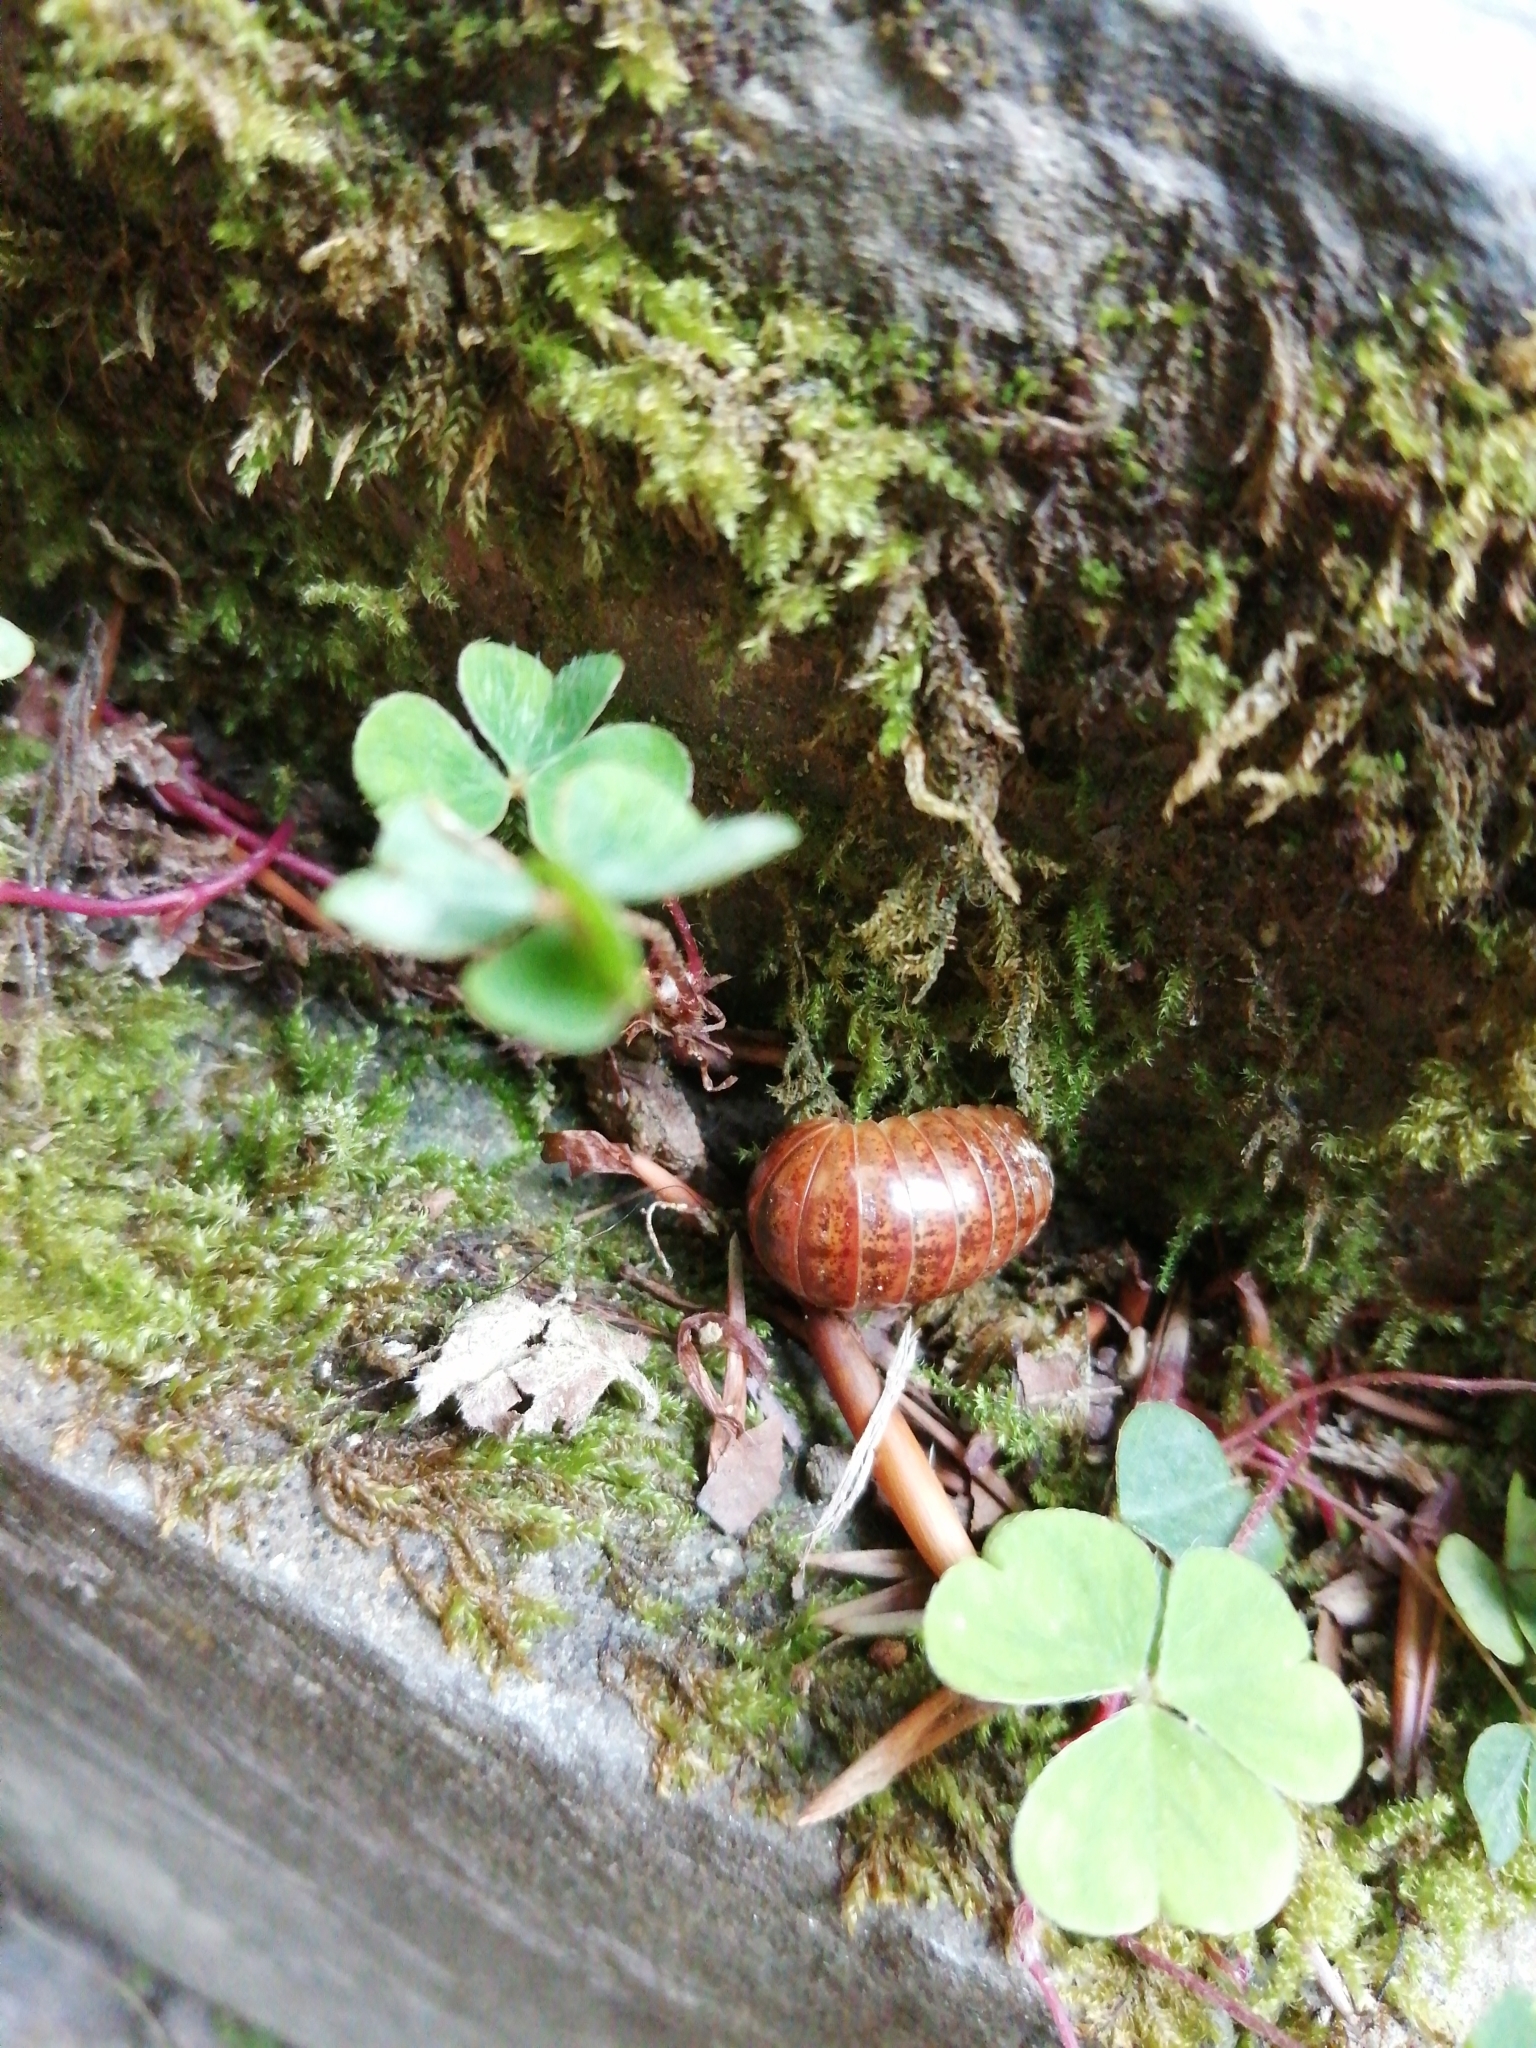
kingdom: Animalia
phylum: Arthropoda
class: Diplopoda
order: Glomerida
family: Glomeridae
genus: Loboglomeris
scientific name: Loboglomeris rugifera
